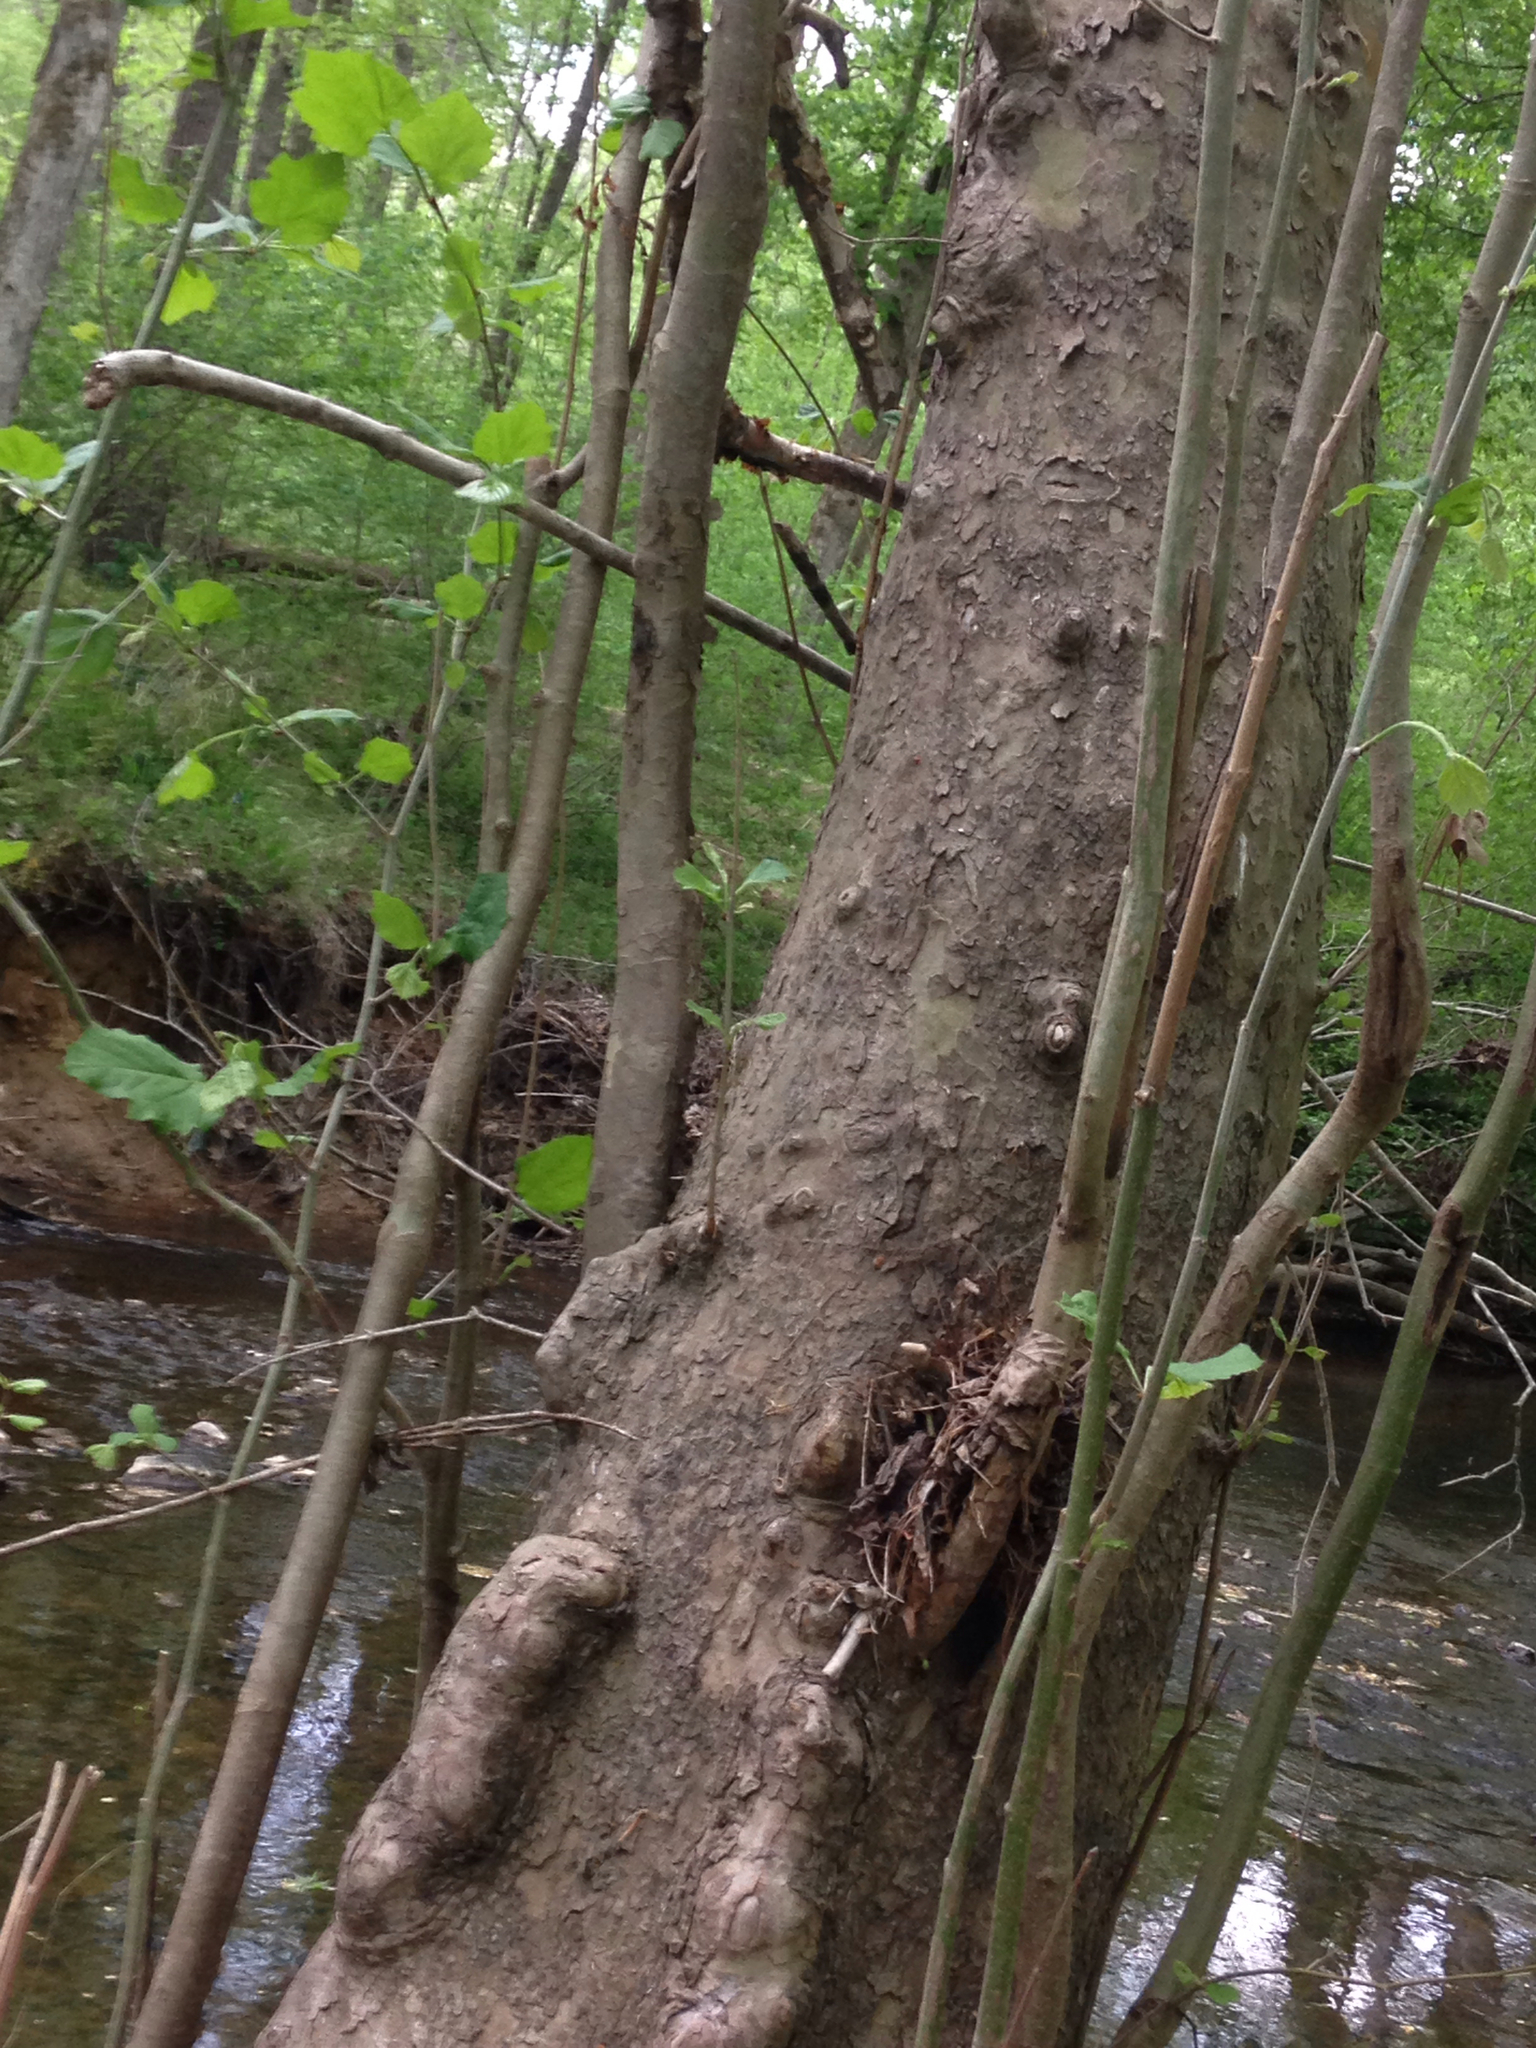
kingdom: Plantae
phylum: Tracheophyta
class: Magnoliopsida
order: Proteales
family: Platanaceae
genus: Platanus
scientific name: Platanus occidentalis
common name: American sycamore
